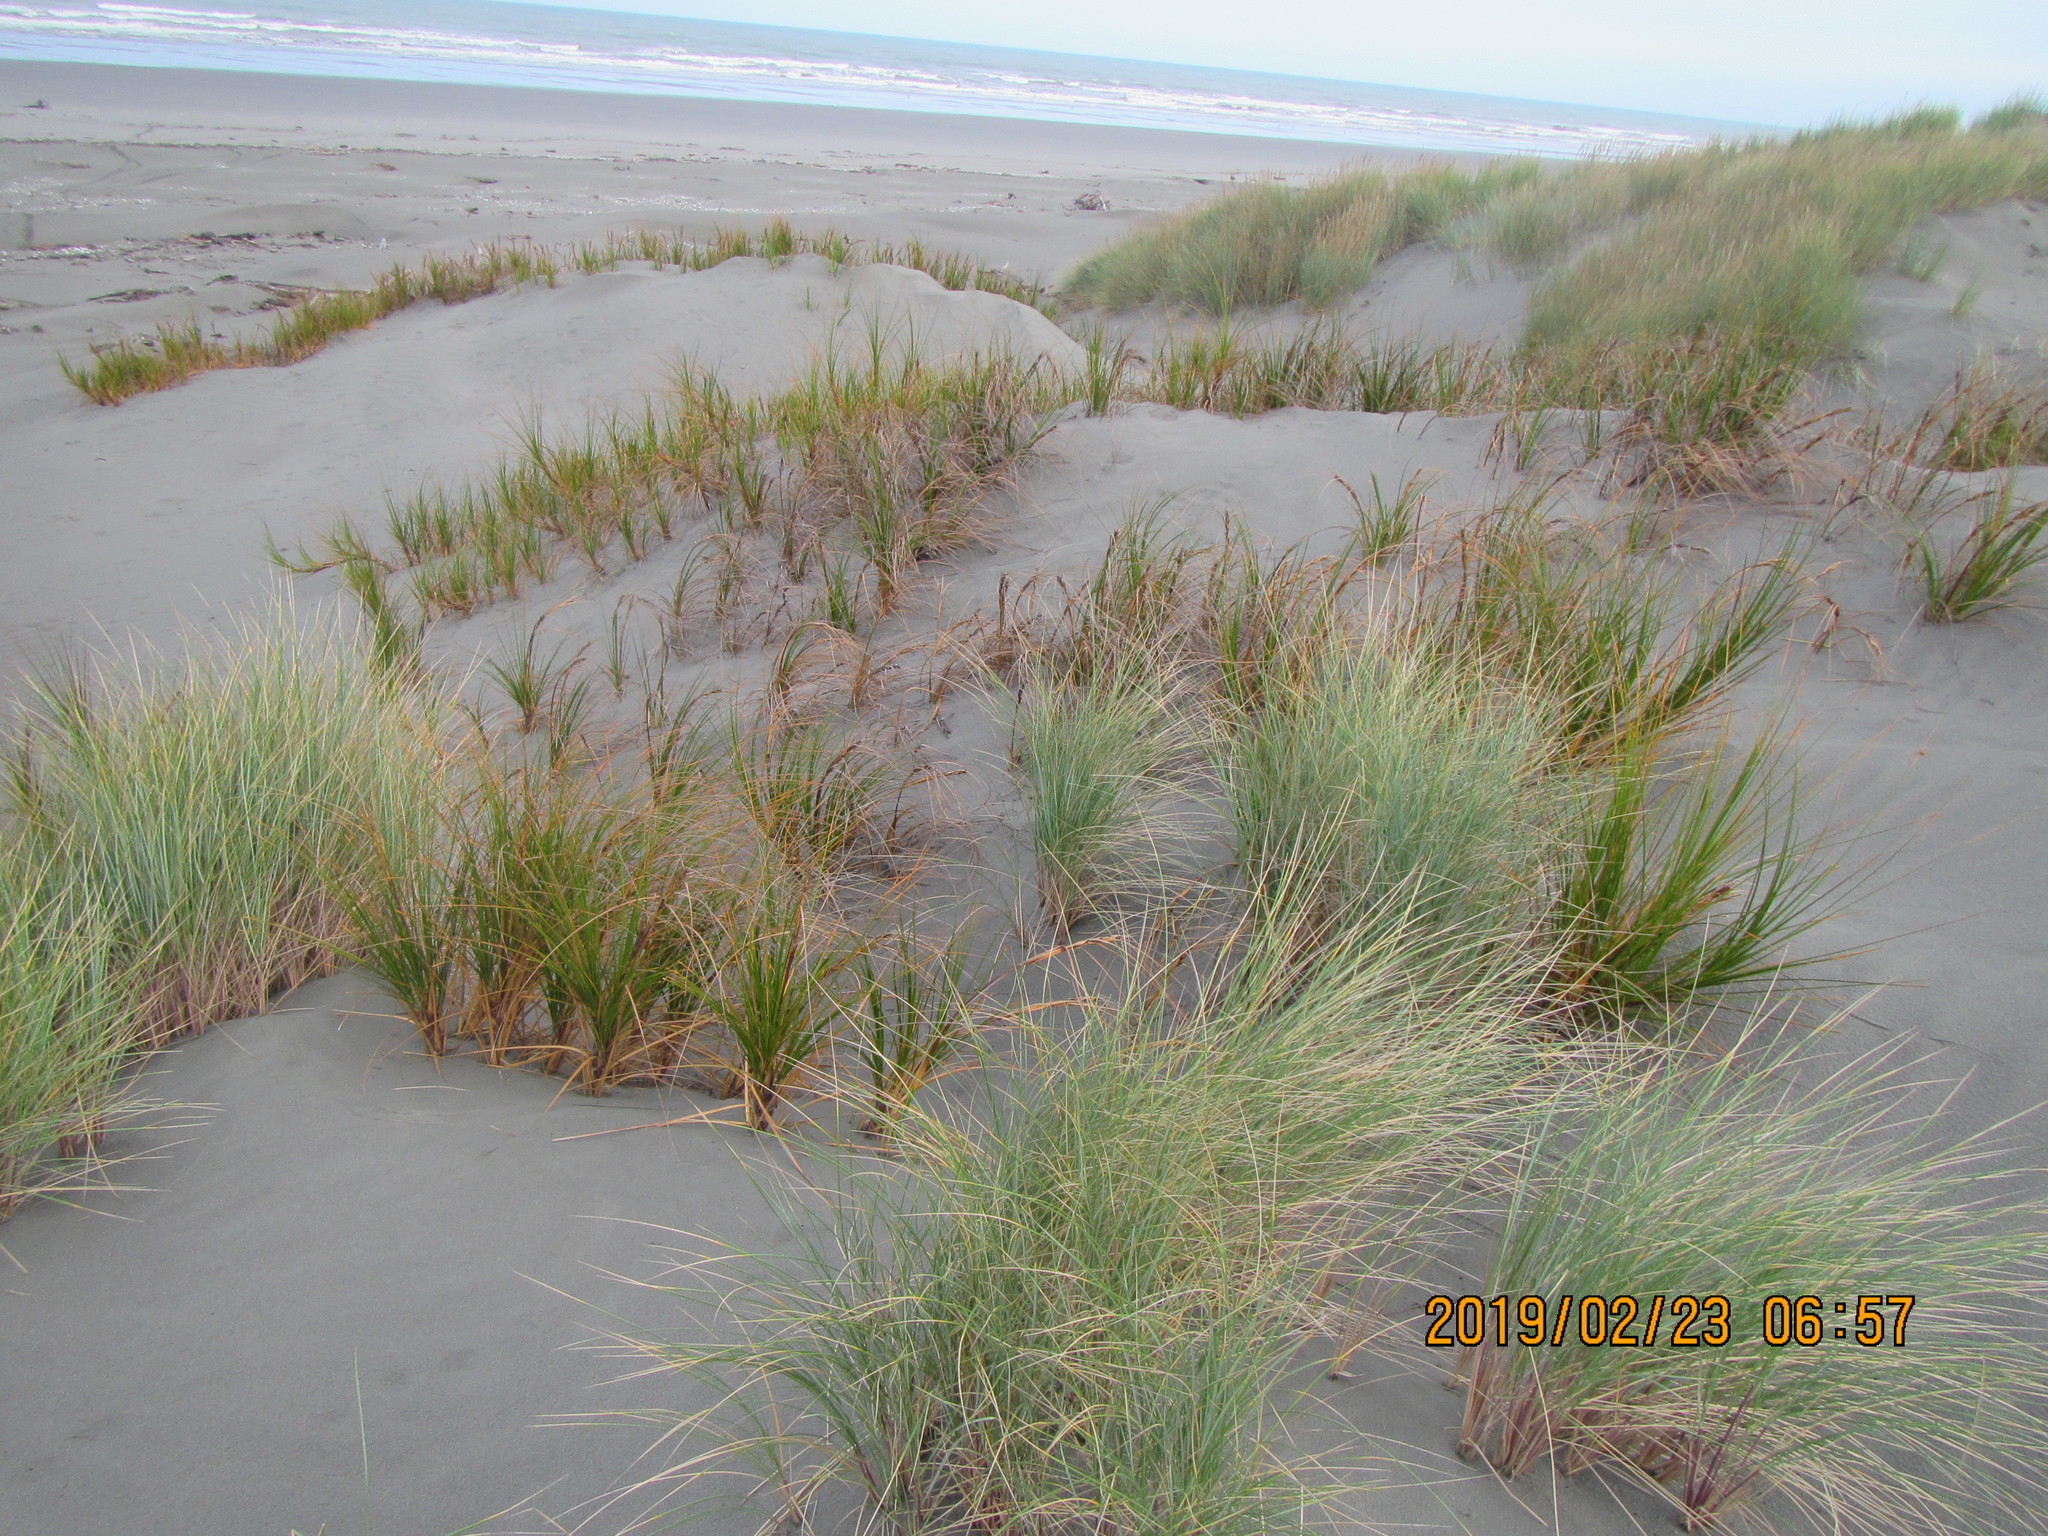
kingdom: Plantae
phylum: Tracheophyta
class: Liliopsida
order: Poales
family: Cyperaceae
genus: Ficinia
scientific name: Ficinia spiralis
